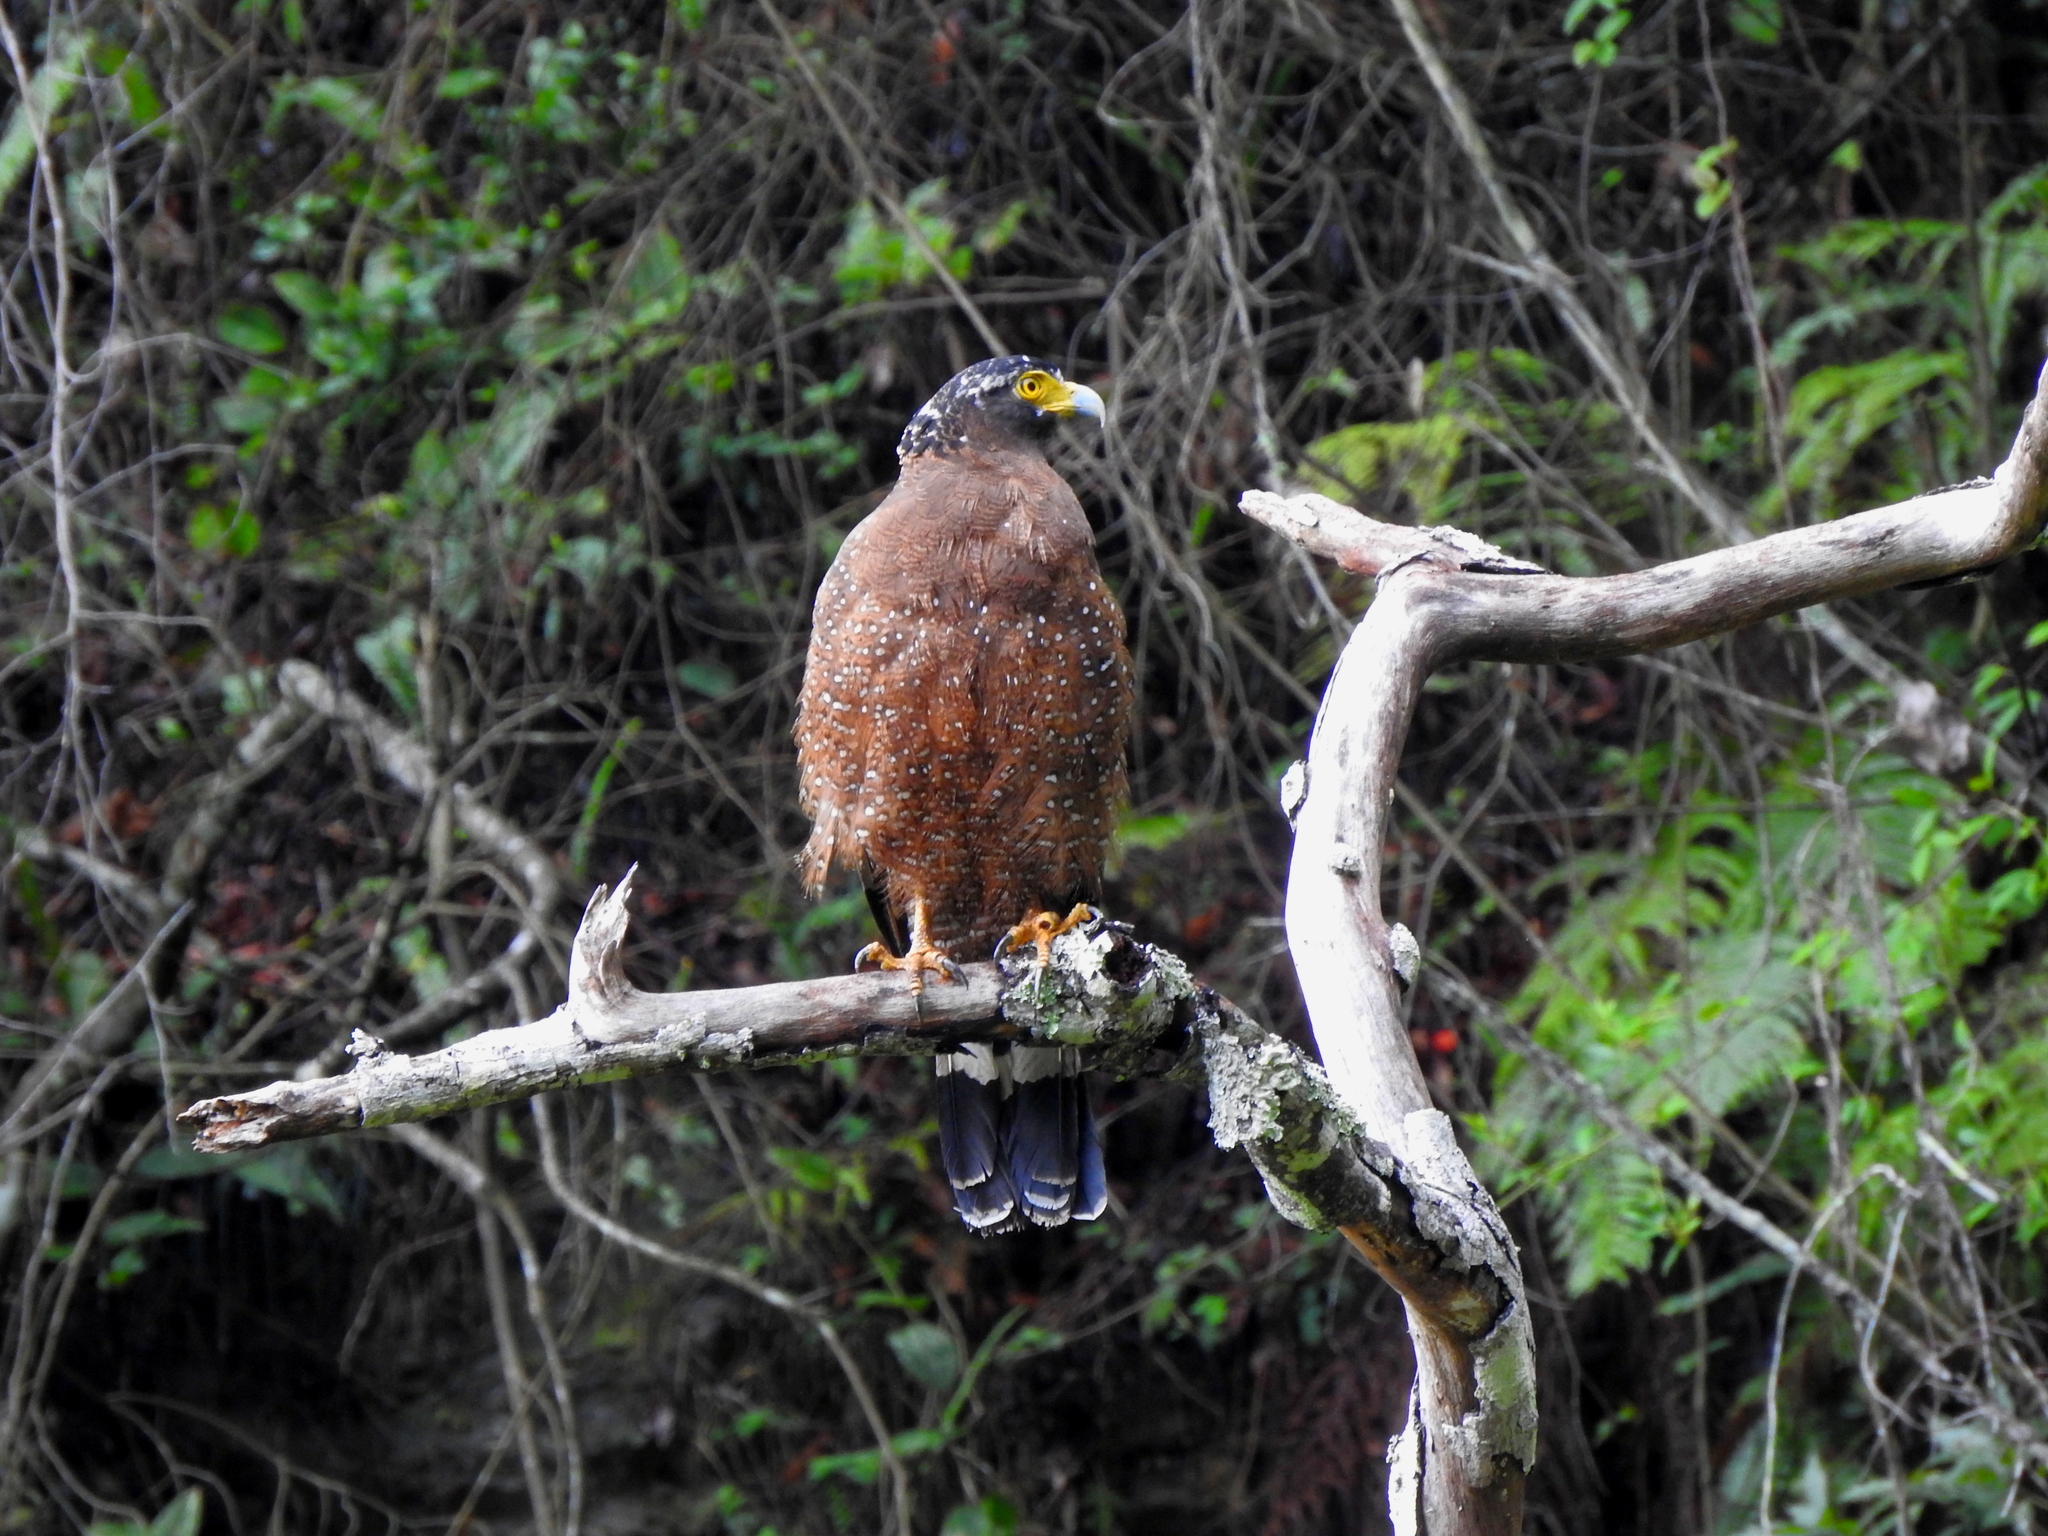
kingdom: Animalia
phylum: Chordata
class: Aves
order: Accipitriformes
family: Accipitridae
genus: Spilornis
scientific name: Spilornis cheela
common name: Crested serpent eagle
